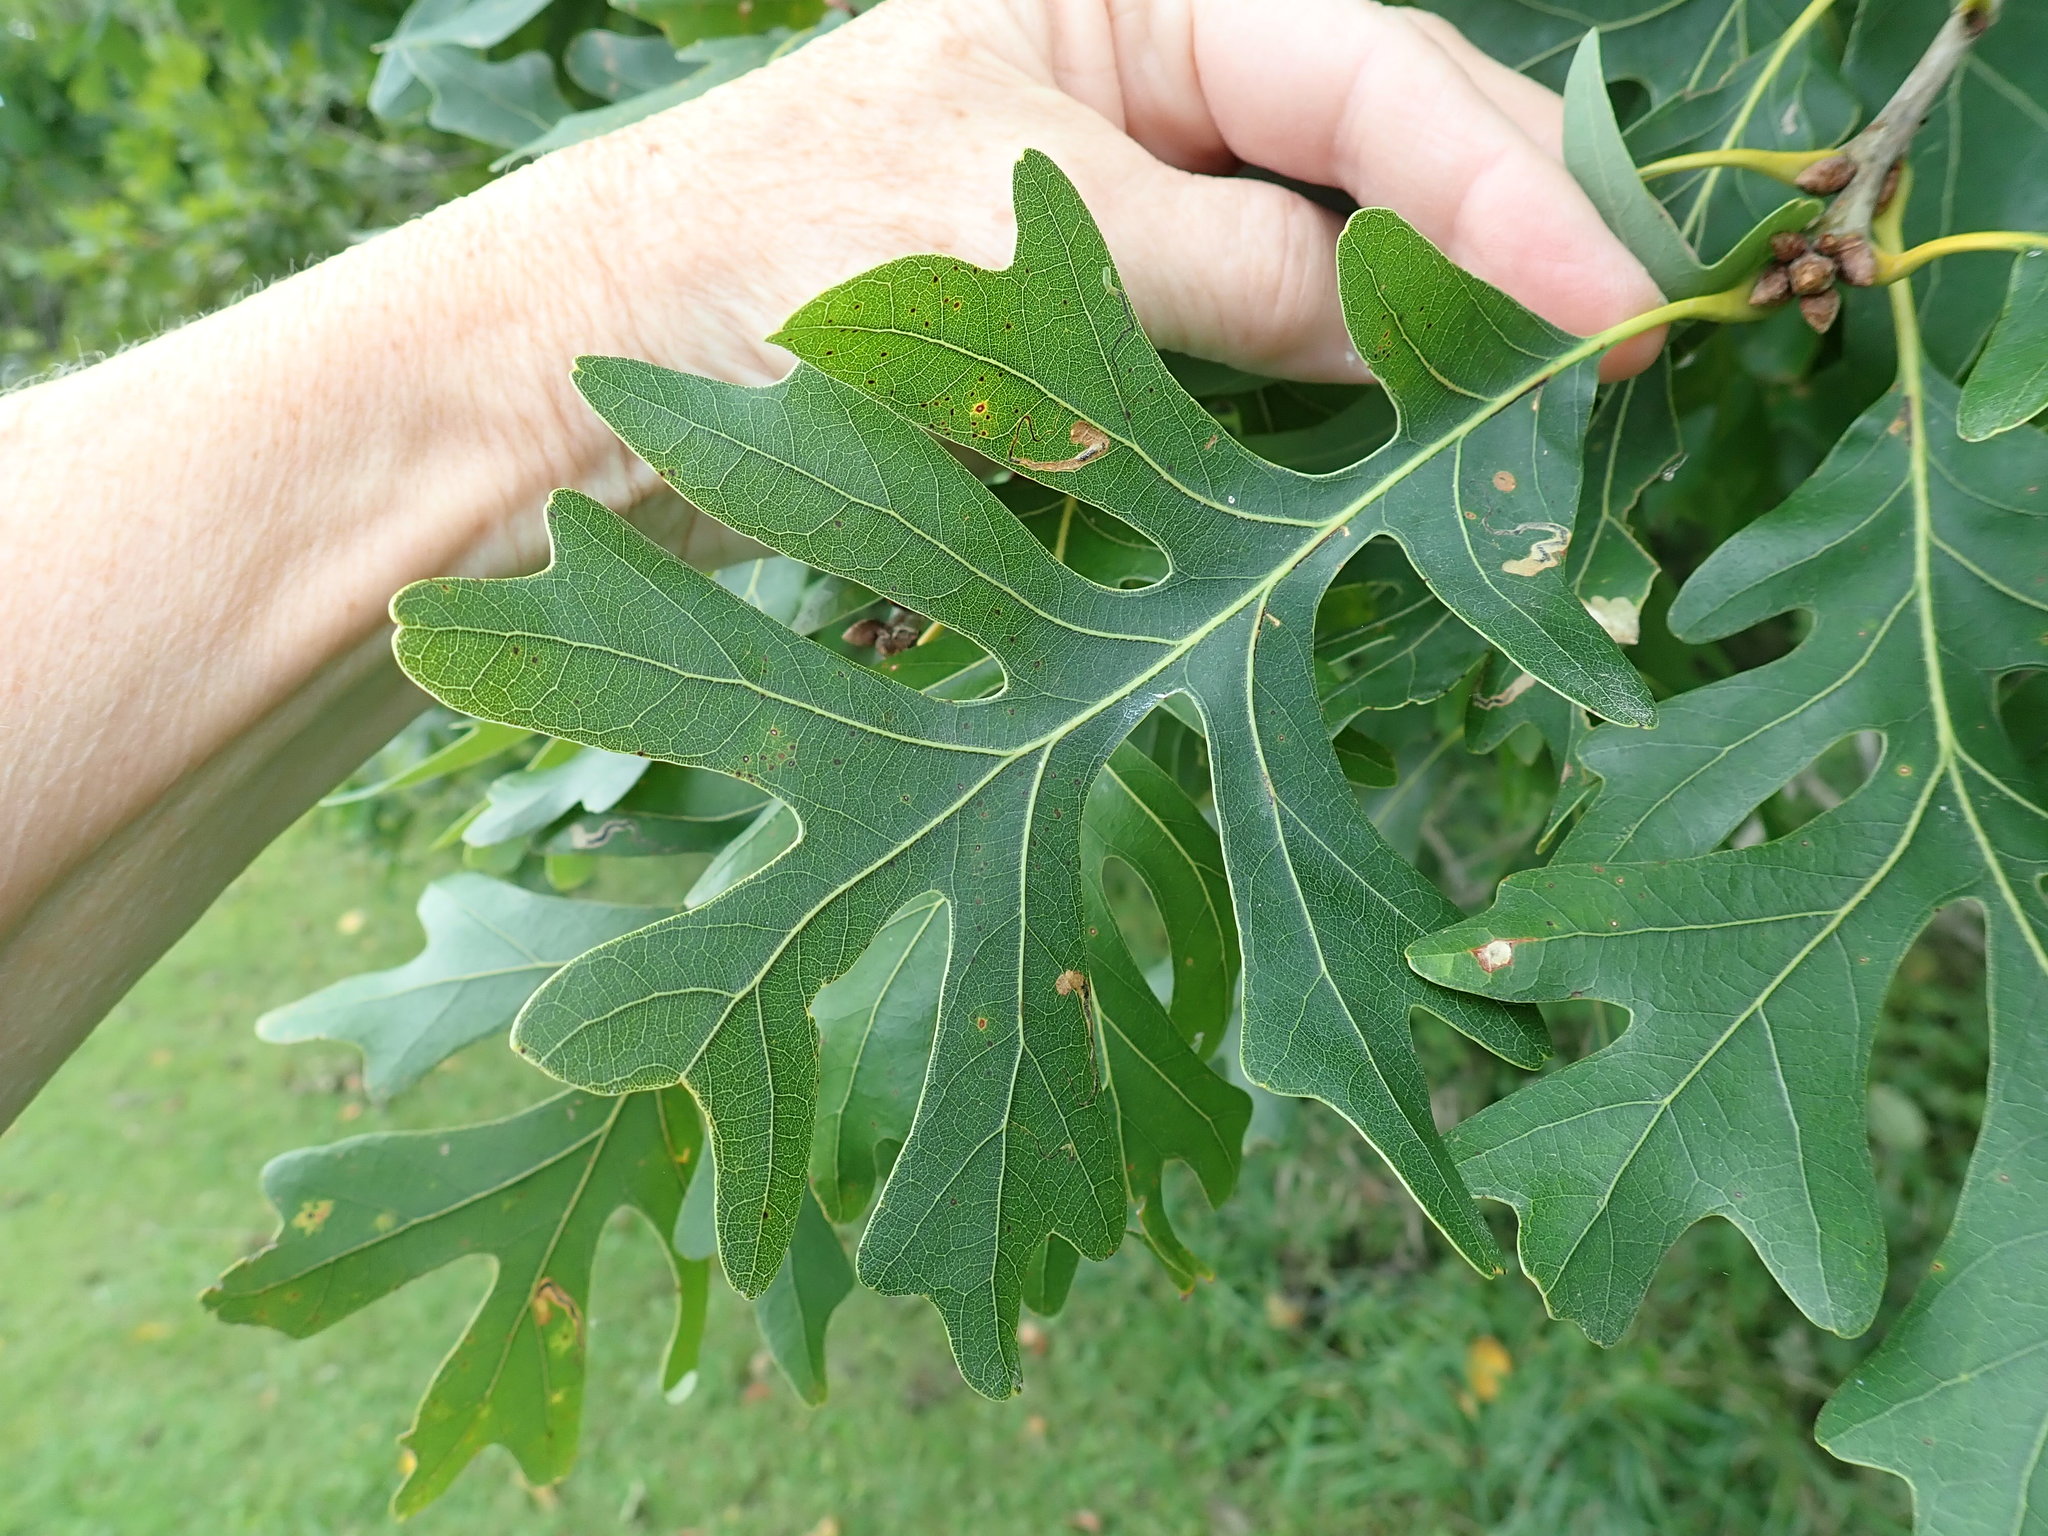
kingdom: Plantae
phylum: Tracheophyta
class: Magnoliopsida
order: Fagales
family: Fagaceae
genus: Quercus
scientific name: Quercus alba
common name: White oak
